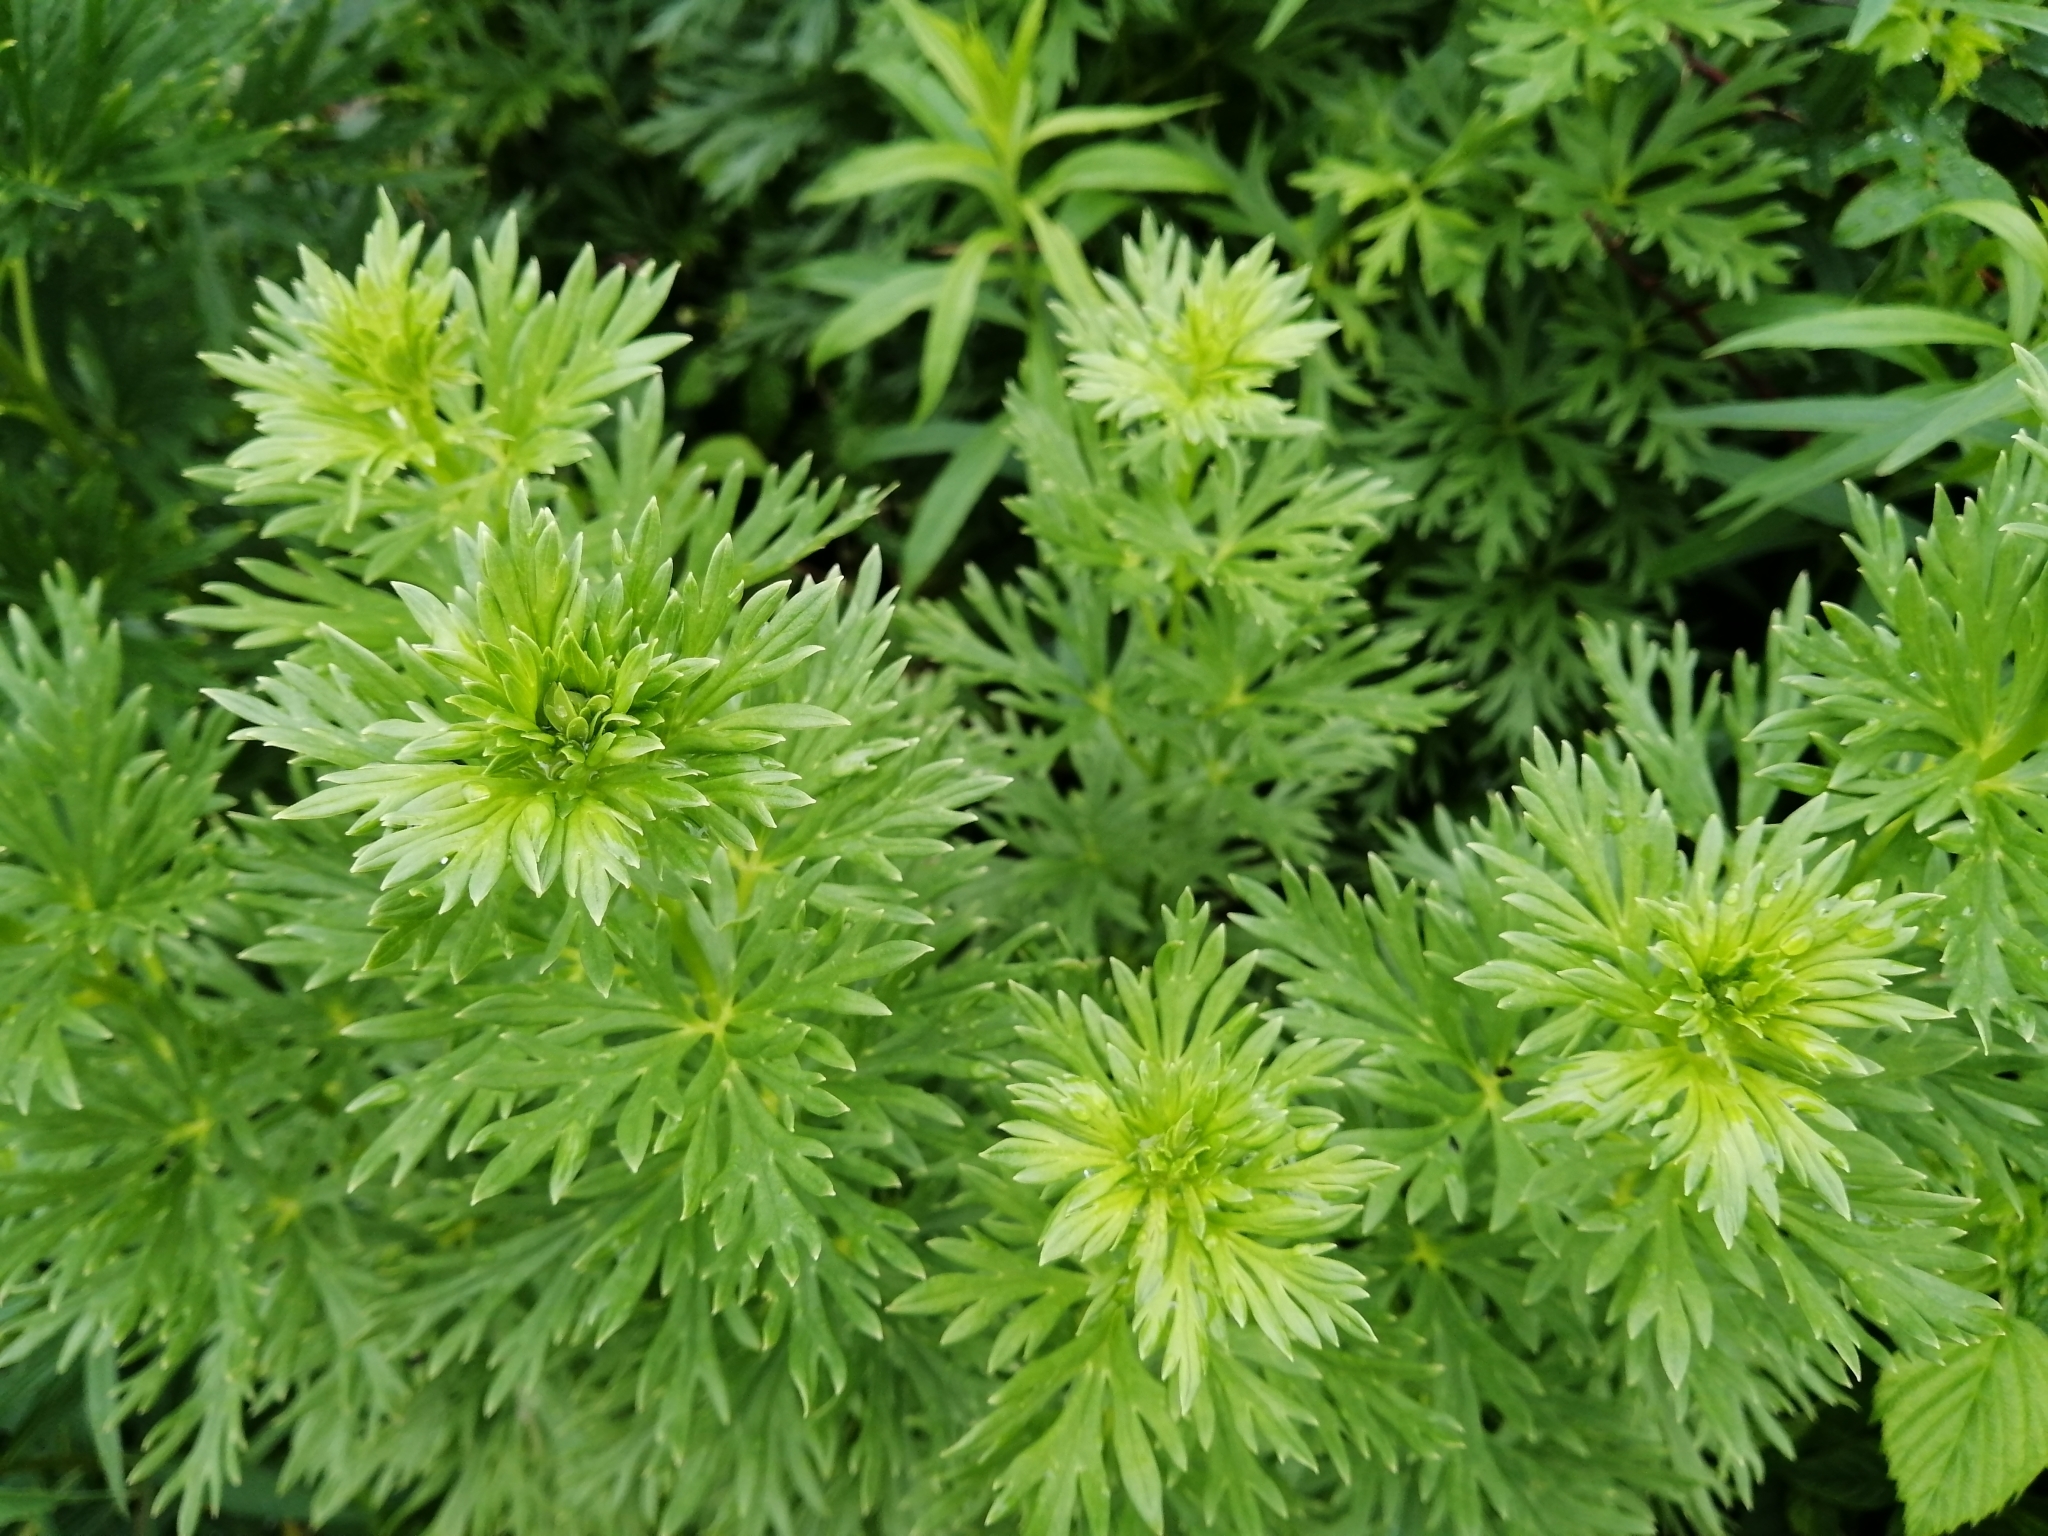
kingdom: Plantae
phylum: Tracheophyta
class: Magnoliopsida
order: Ranunculales
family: Ranunculaceae
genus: Aconitum
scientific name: Aconitum napellus
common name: Garden monkshood
